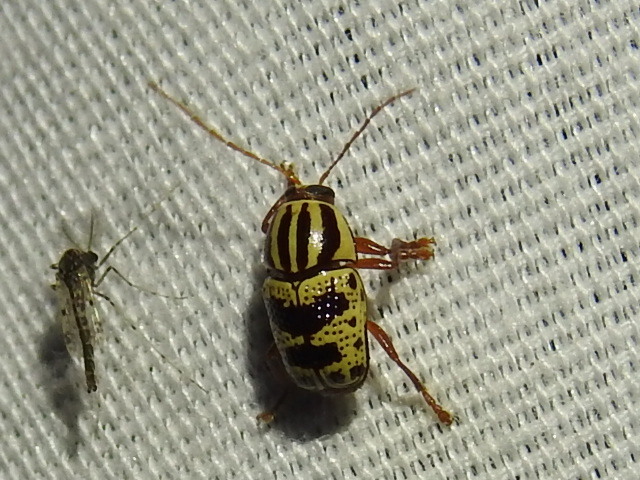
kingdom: Animalia
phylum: Arthropoda
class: Insecta
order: Coleoptera
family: Chrysomelidae
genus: Cryptocephalus
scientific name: Cryptocephalus leucomelas
